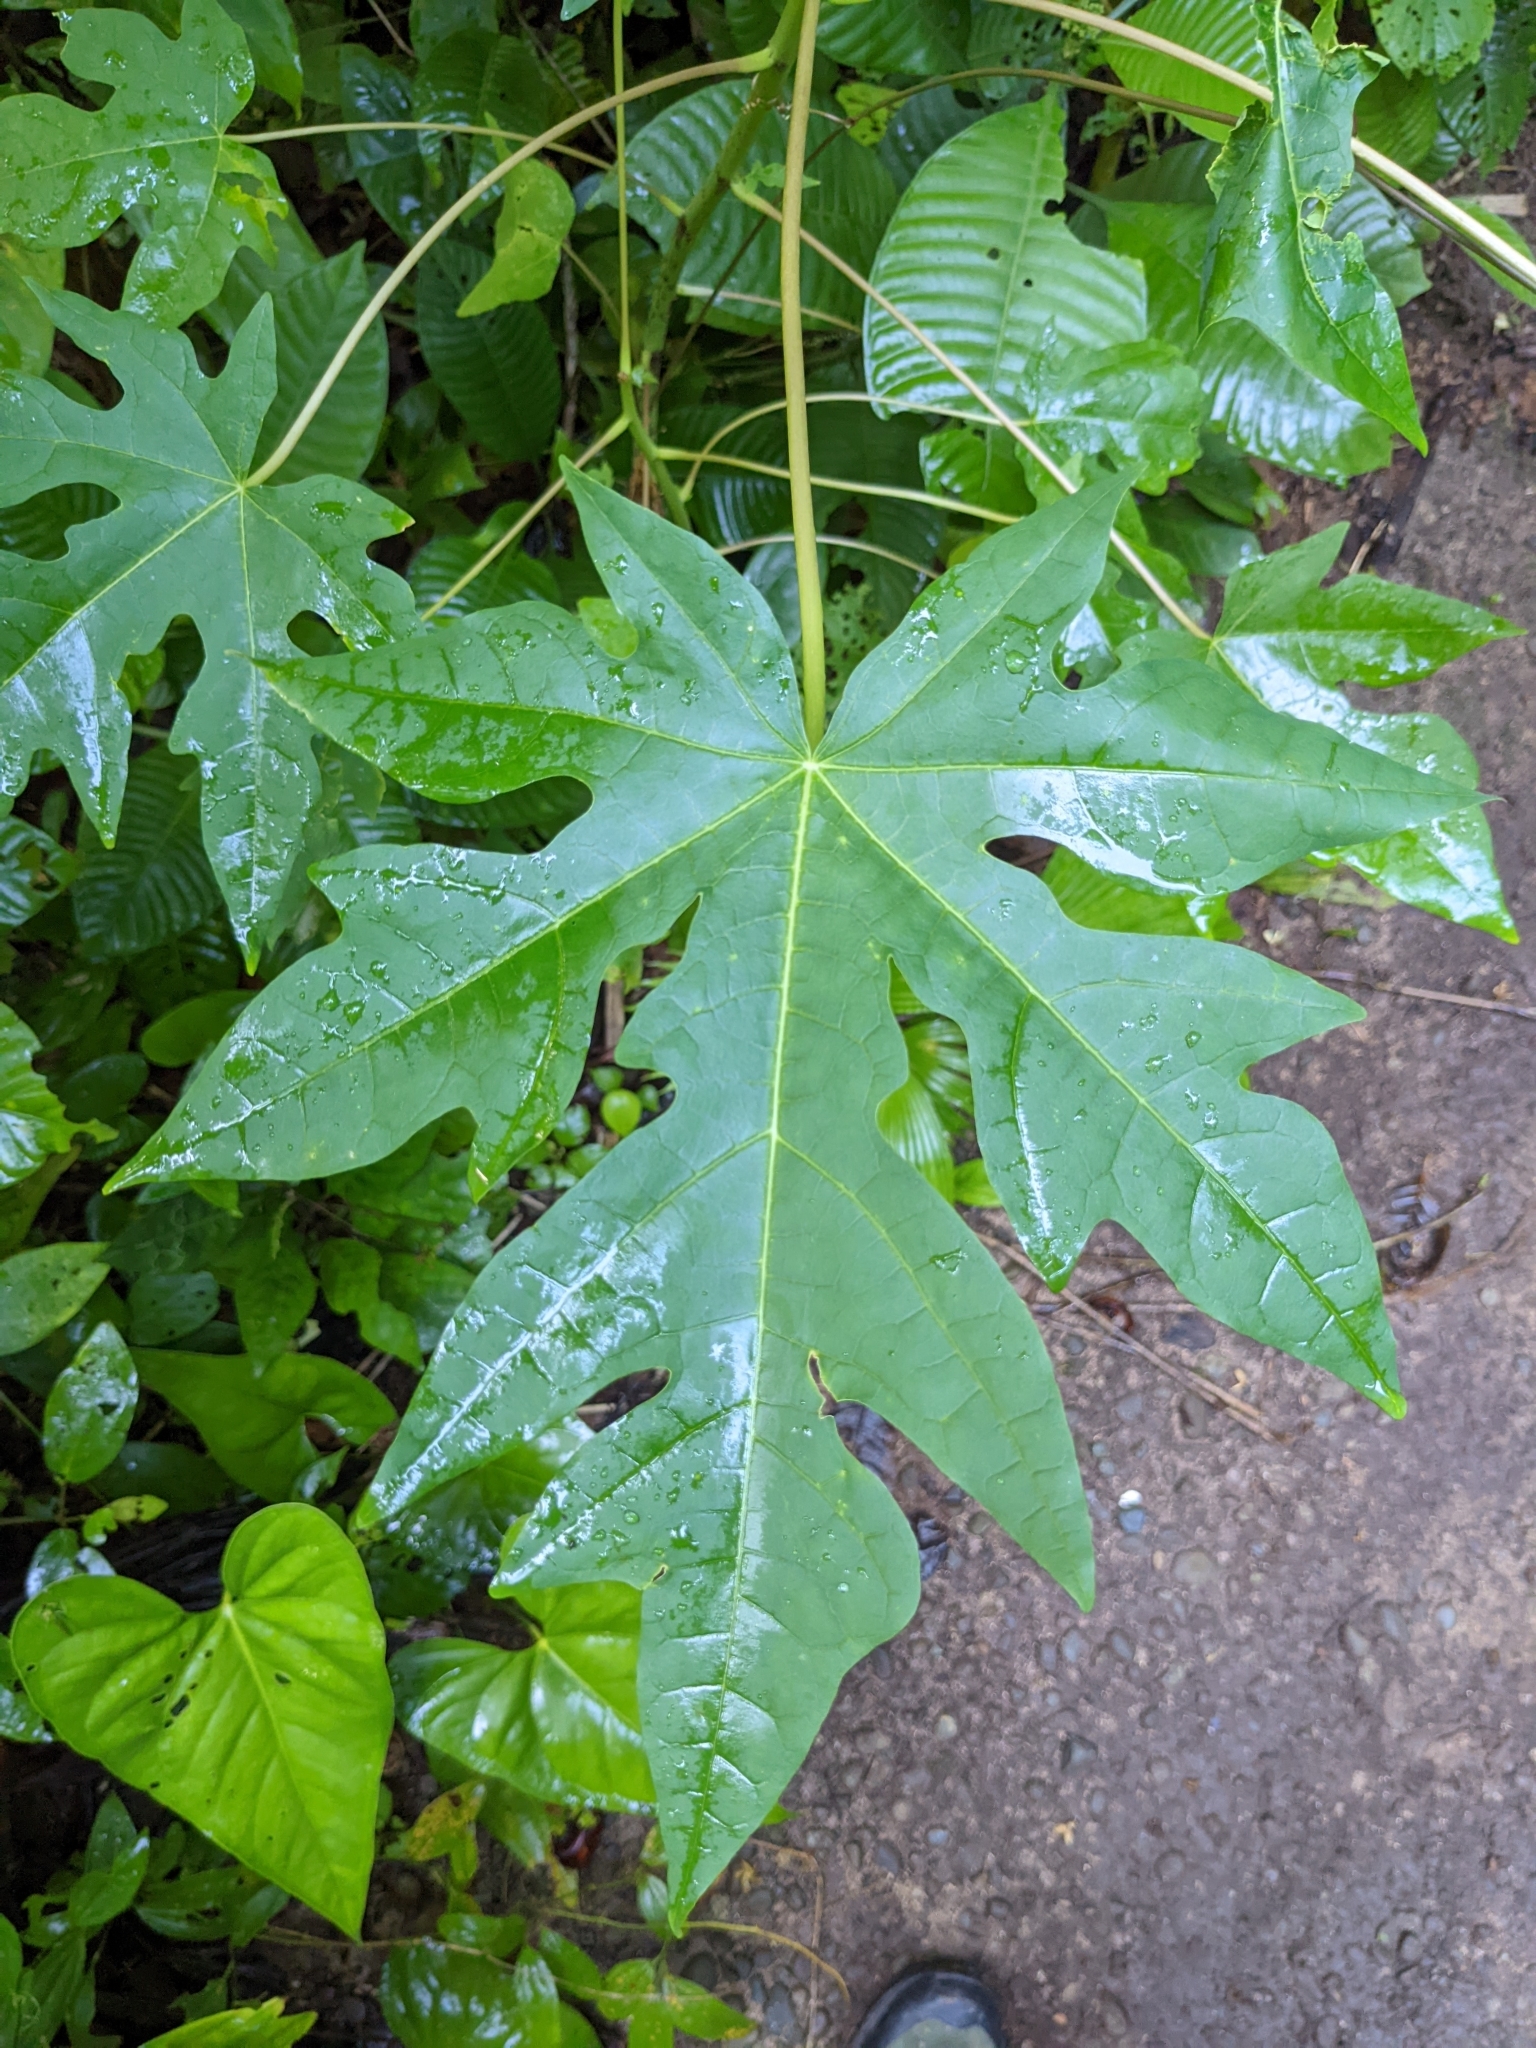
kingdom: Plantae
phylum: Tracheophyta
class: Magnoliopsida
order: Brassicales
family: Caricaceae
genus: Carica
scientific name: Carica papaya
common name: Papaya
